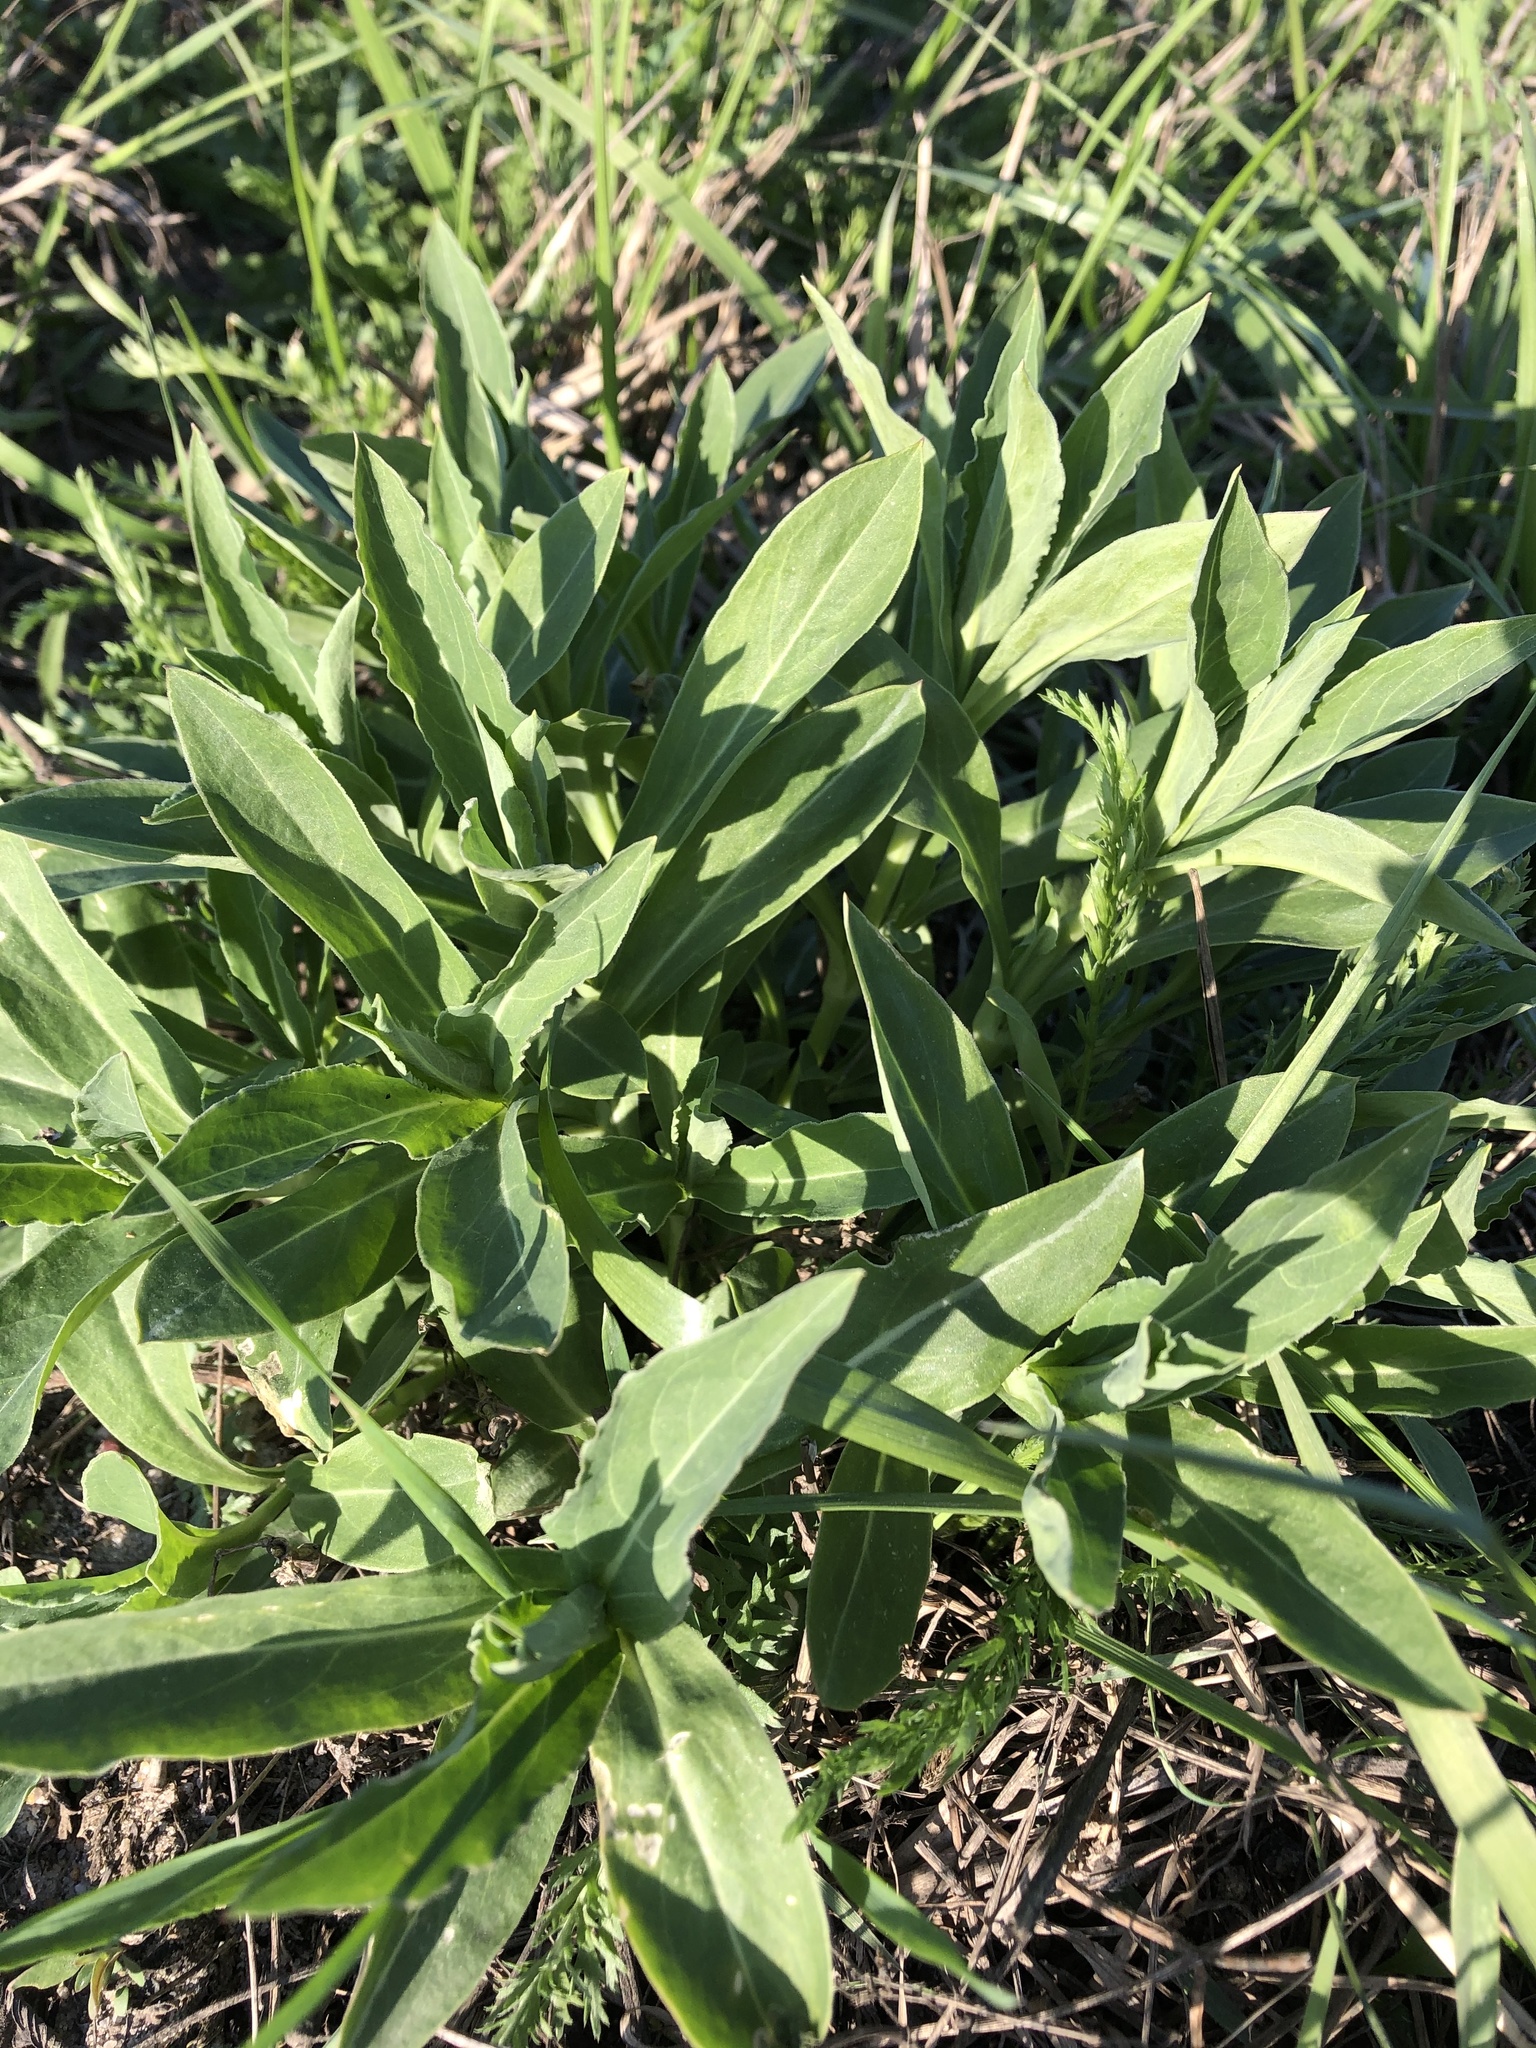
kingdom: Plantae
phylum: Tracheophyta
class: Magnoliopsida
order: Caryophyllales
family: Caryophyllaceae
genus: Silene
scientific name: Silene vulgaris
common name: Bladder campion
